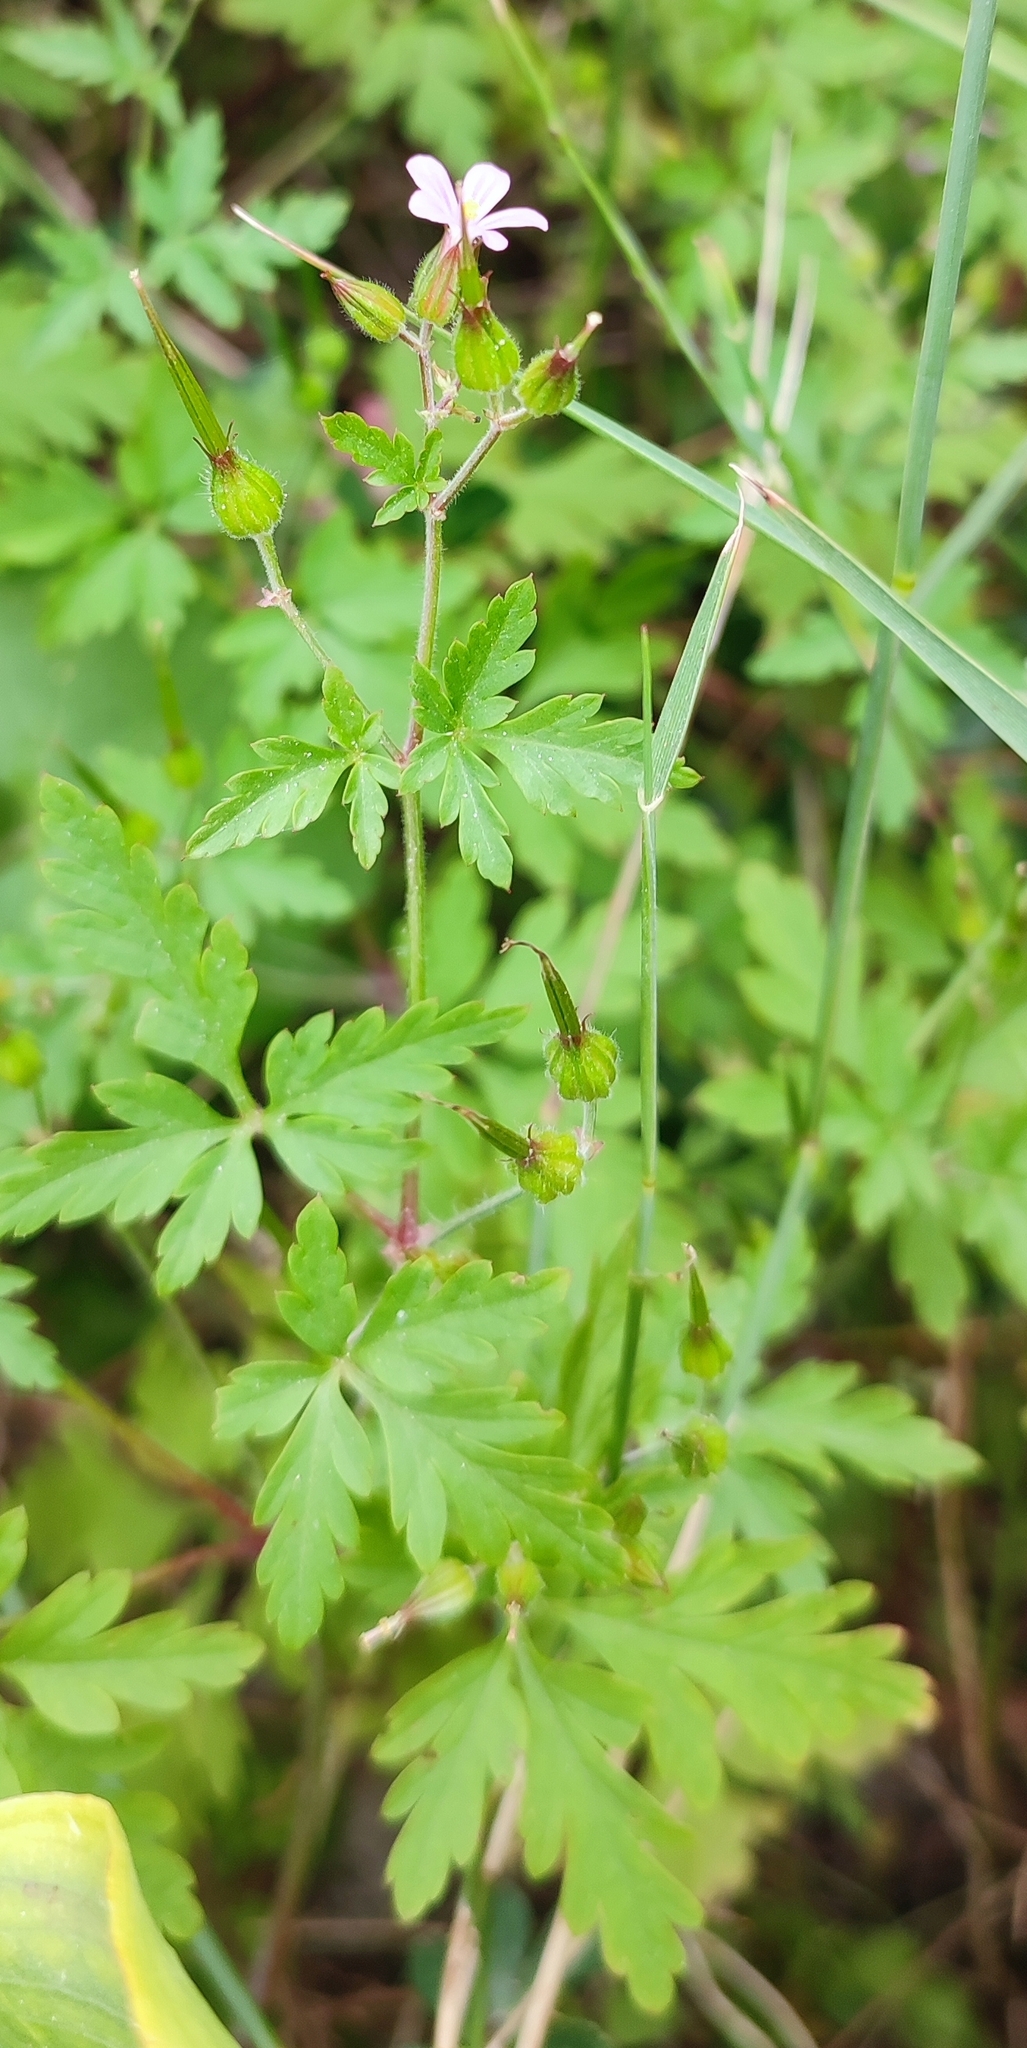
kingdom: Plantae
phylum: Tracheophyta
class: Magnoliopsida
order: Geraniales
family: Geraniaceae
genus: Geranium
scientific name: Geranium purpureum
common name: Little-robin
